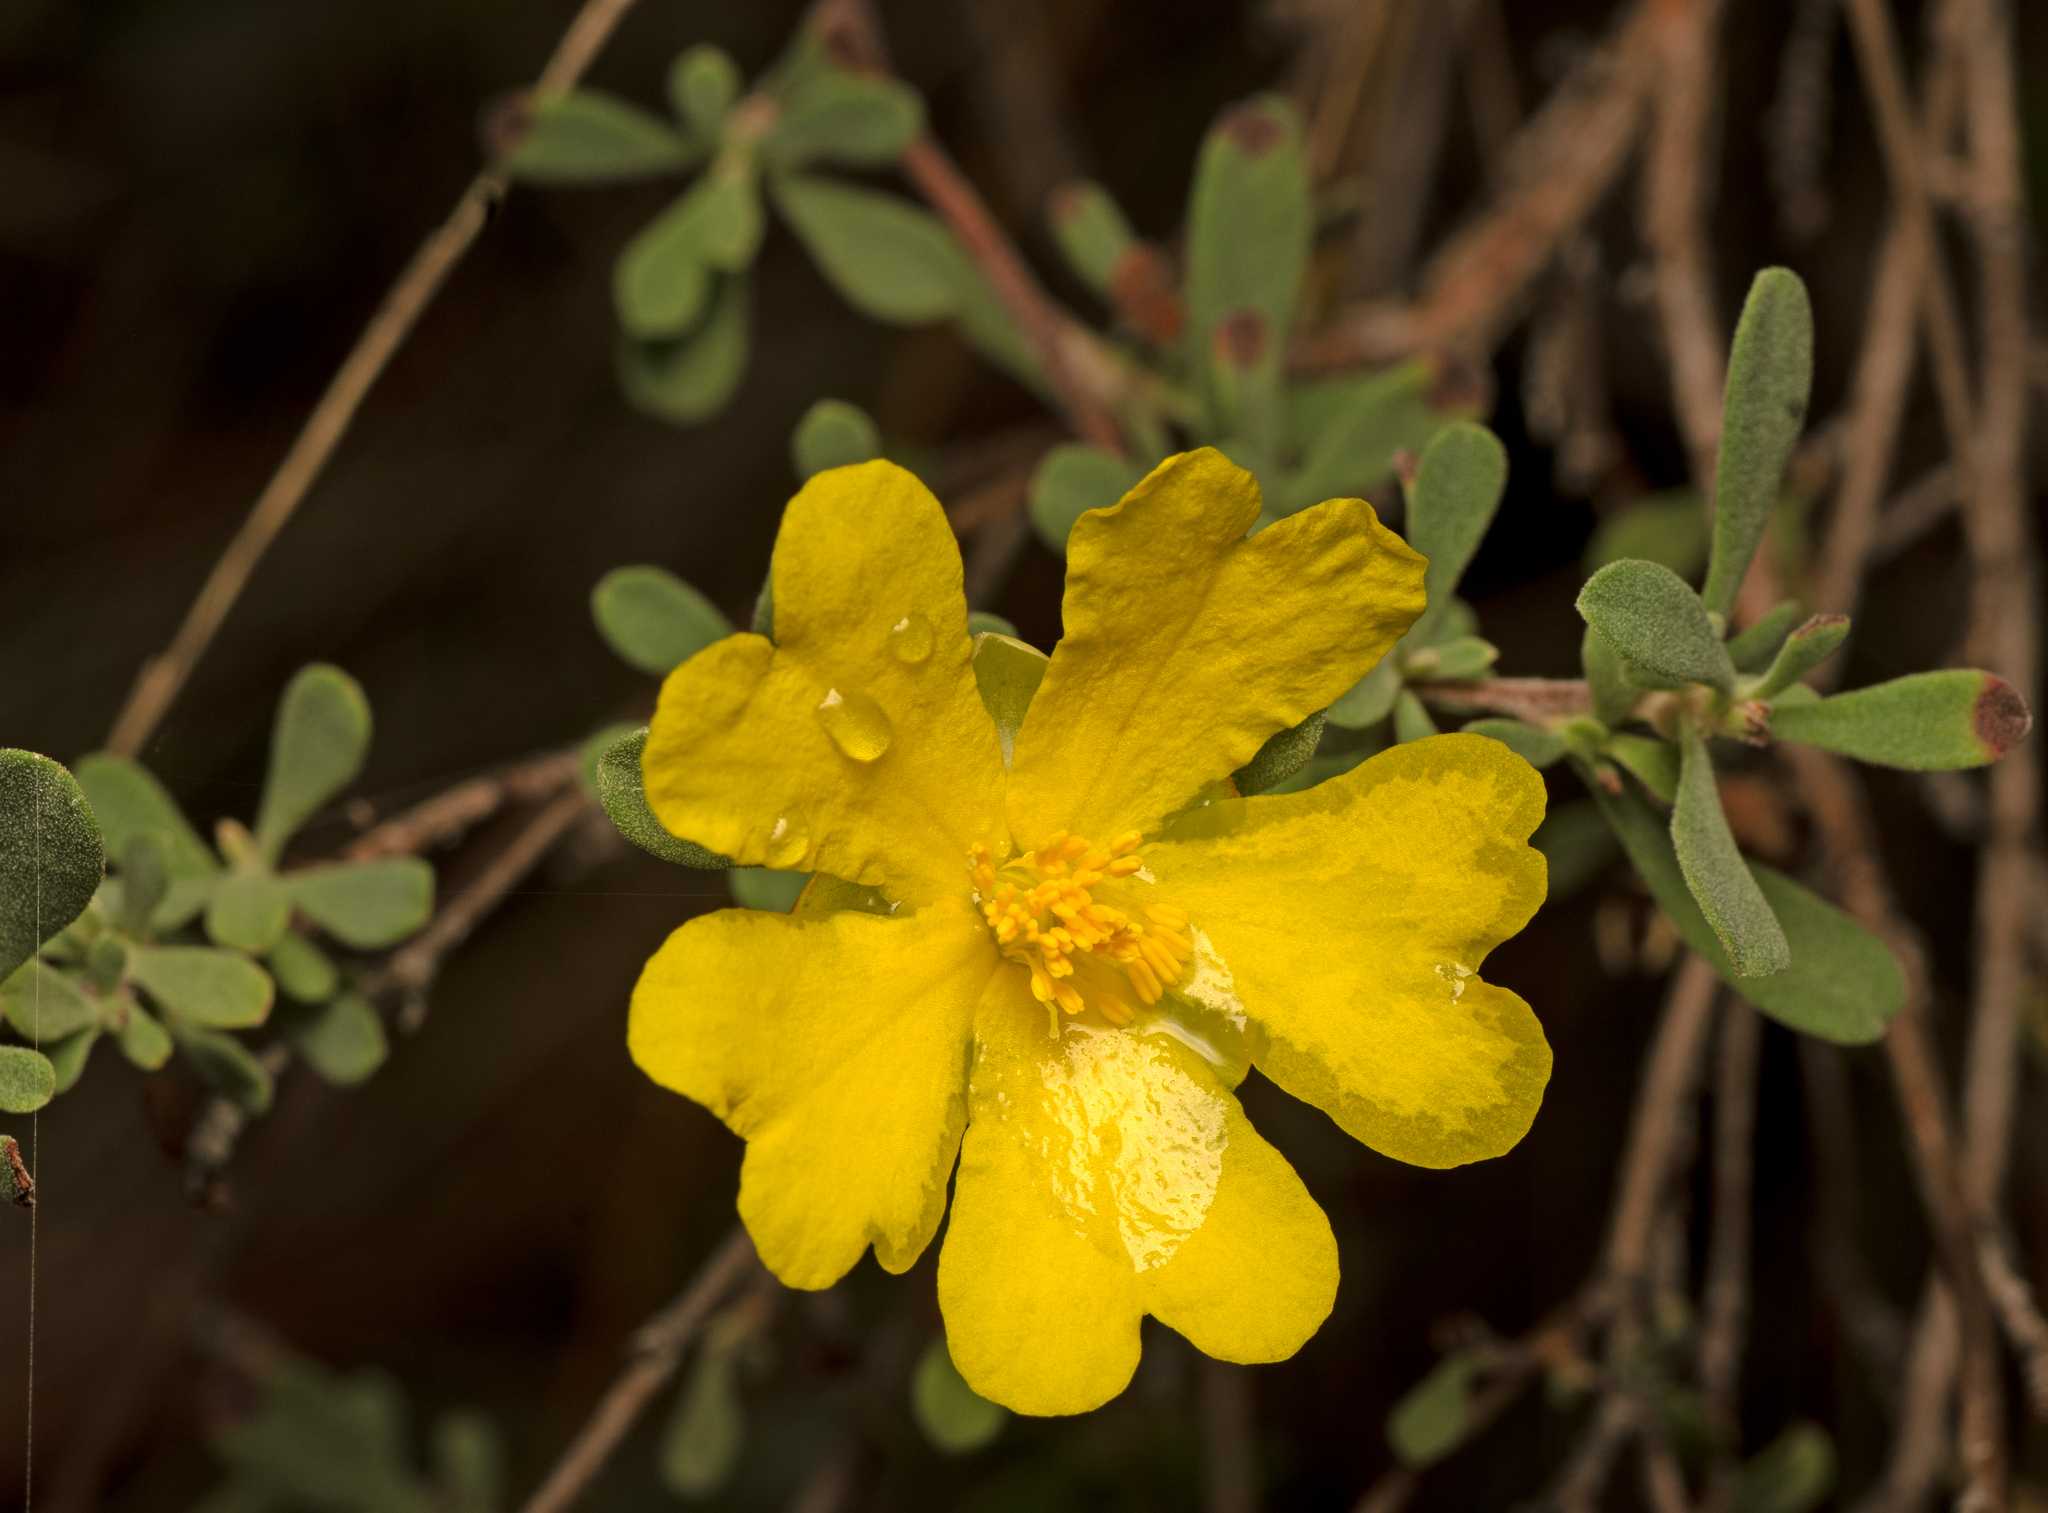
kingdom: Plantae
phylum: Tracheophyta
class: Magnoliopsida
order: Dilleniales
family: Dilleniaceae
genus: Hibbertia
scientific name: Hibbertia obtusifolia
